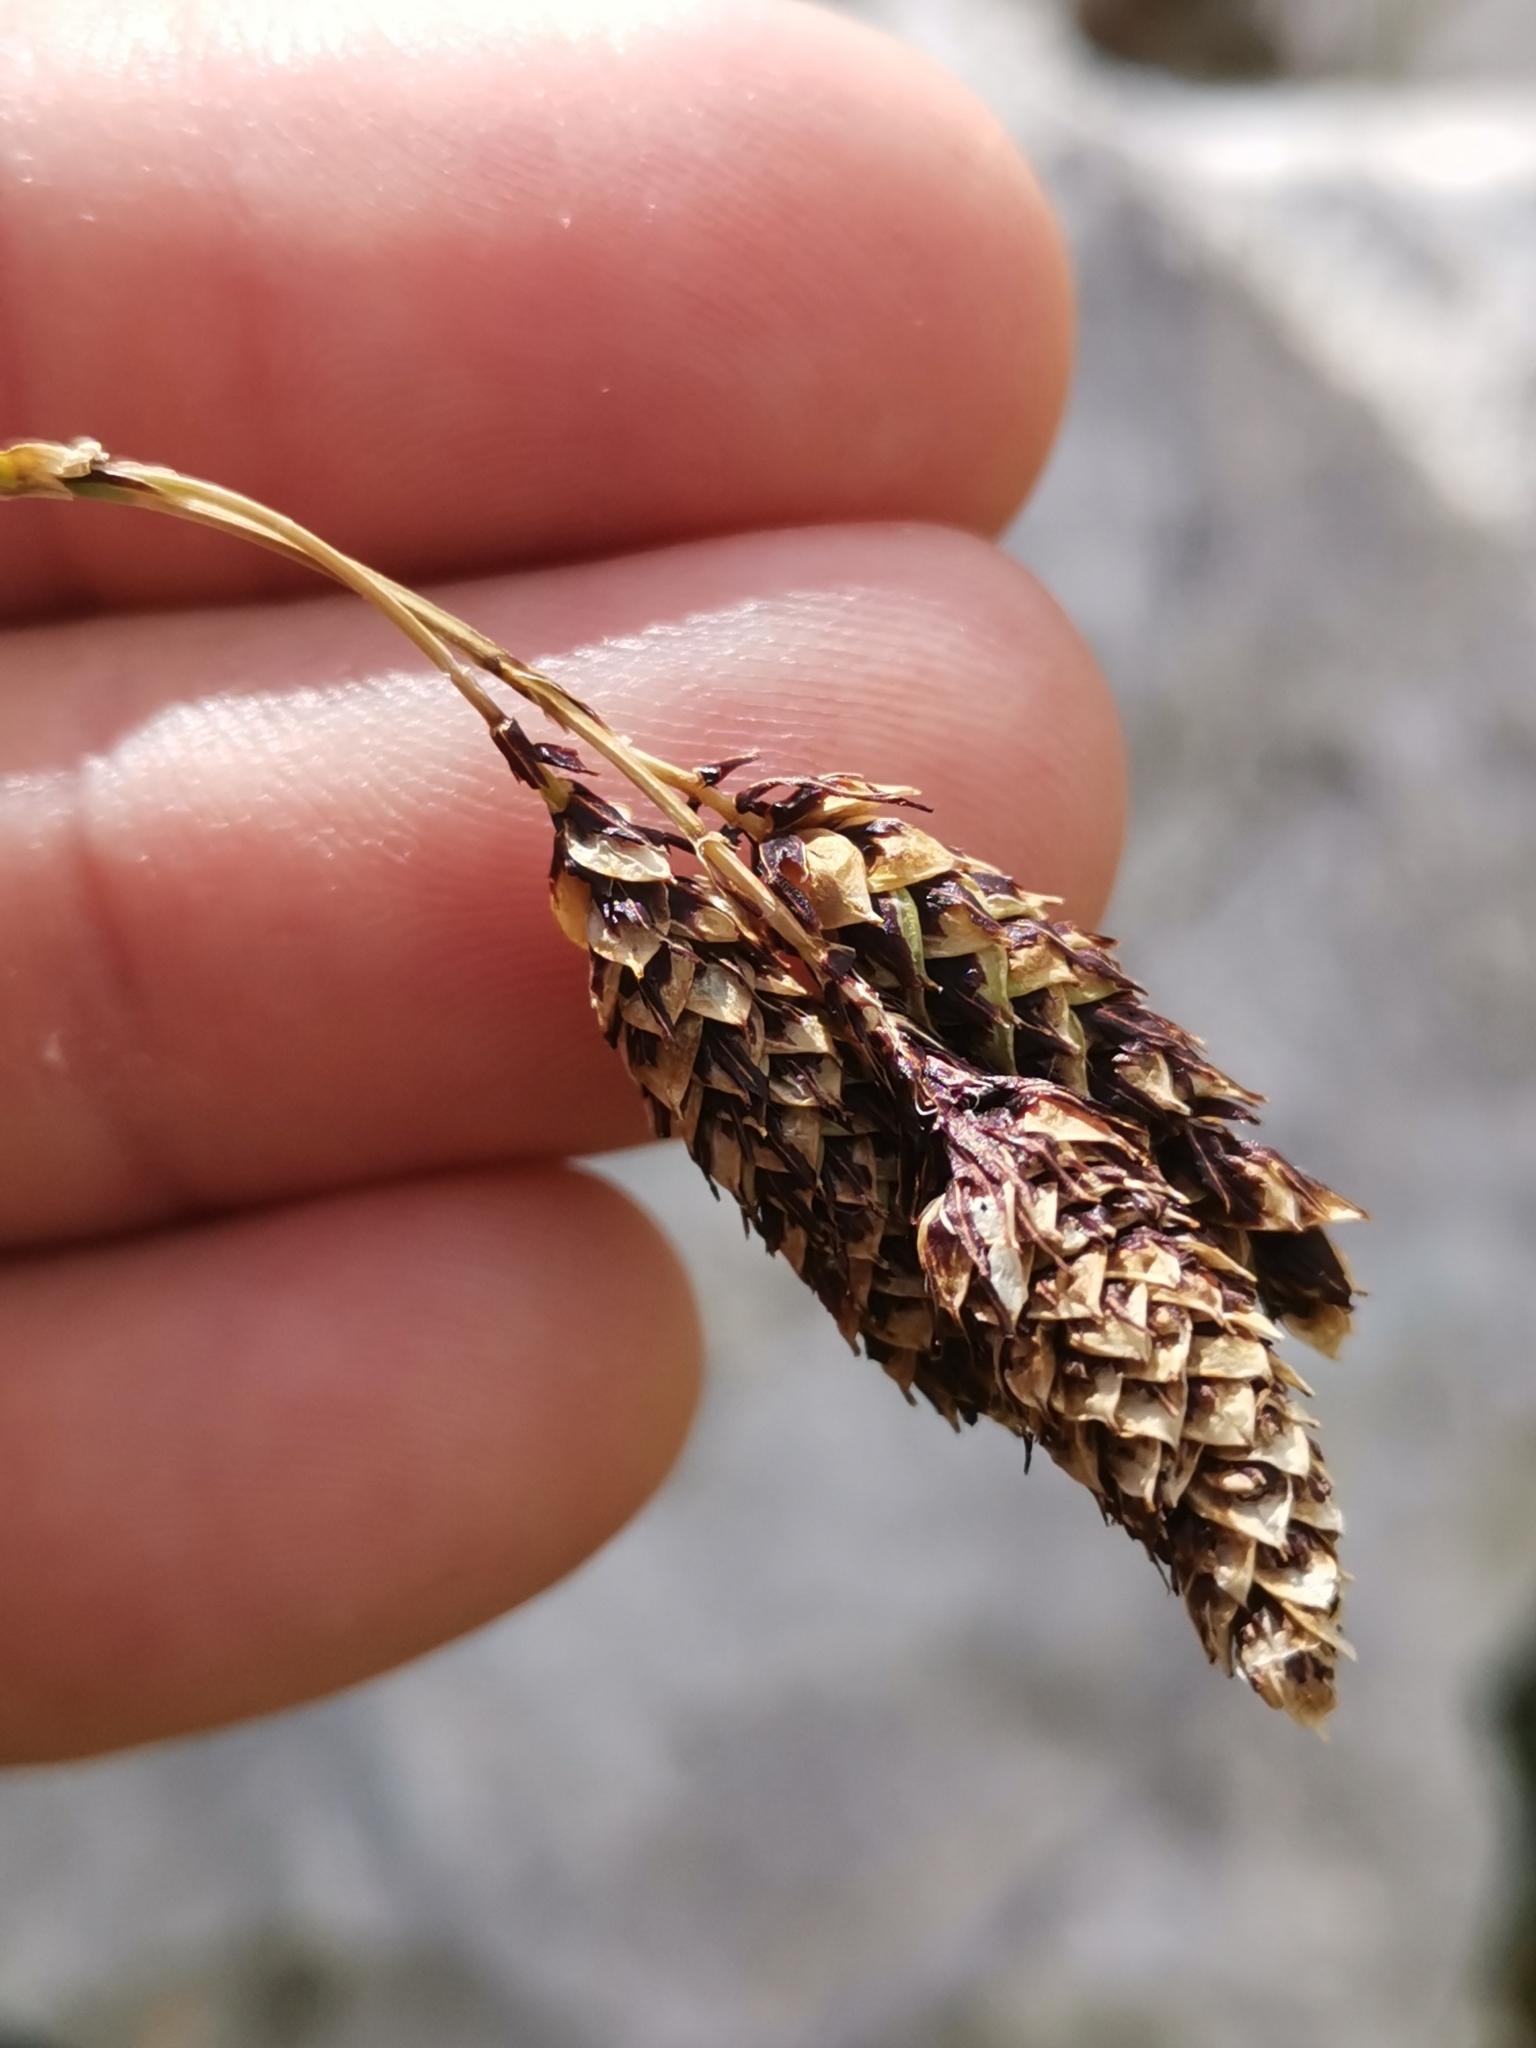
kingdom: Plantae
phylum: Tracheophyta
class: Liliopsida
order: Poales
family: Cyperaceae
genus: Carex
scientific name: Carex atrata
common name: Black alpine sedge
